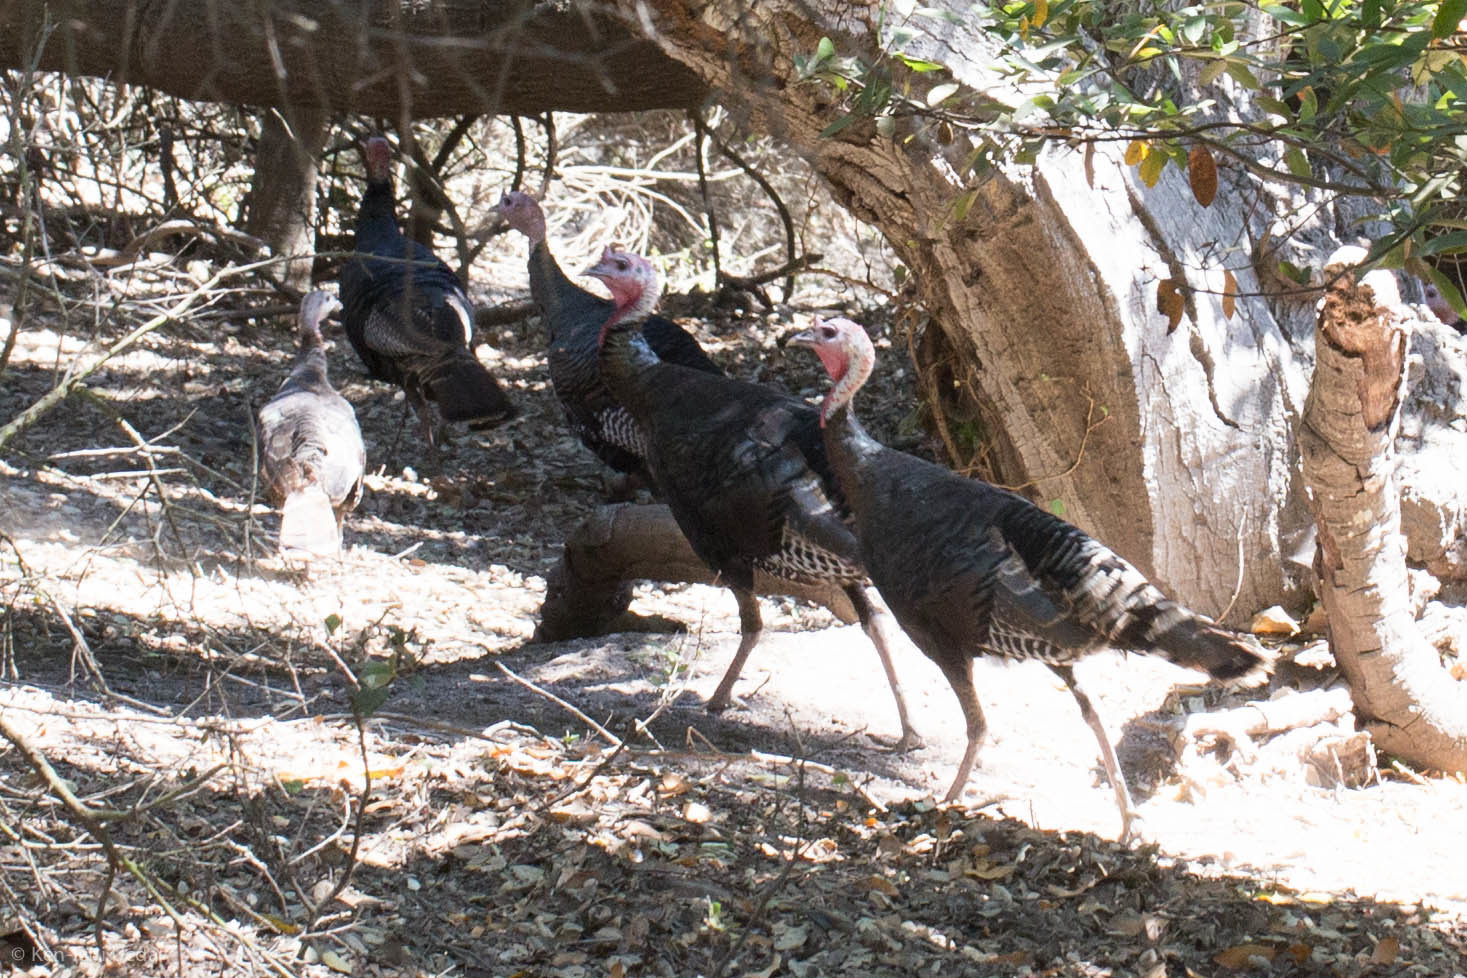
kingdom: Animalia
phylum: Chordata
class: Aves
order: Galliformes
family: Phasianidae
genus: Meleagris
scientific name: Meleagris gallopavo
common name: Wild turkey
